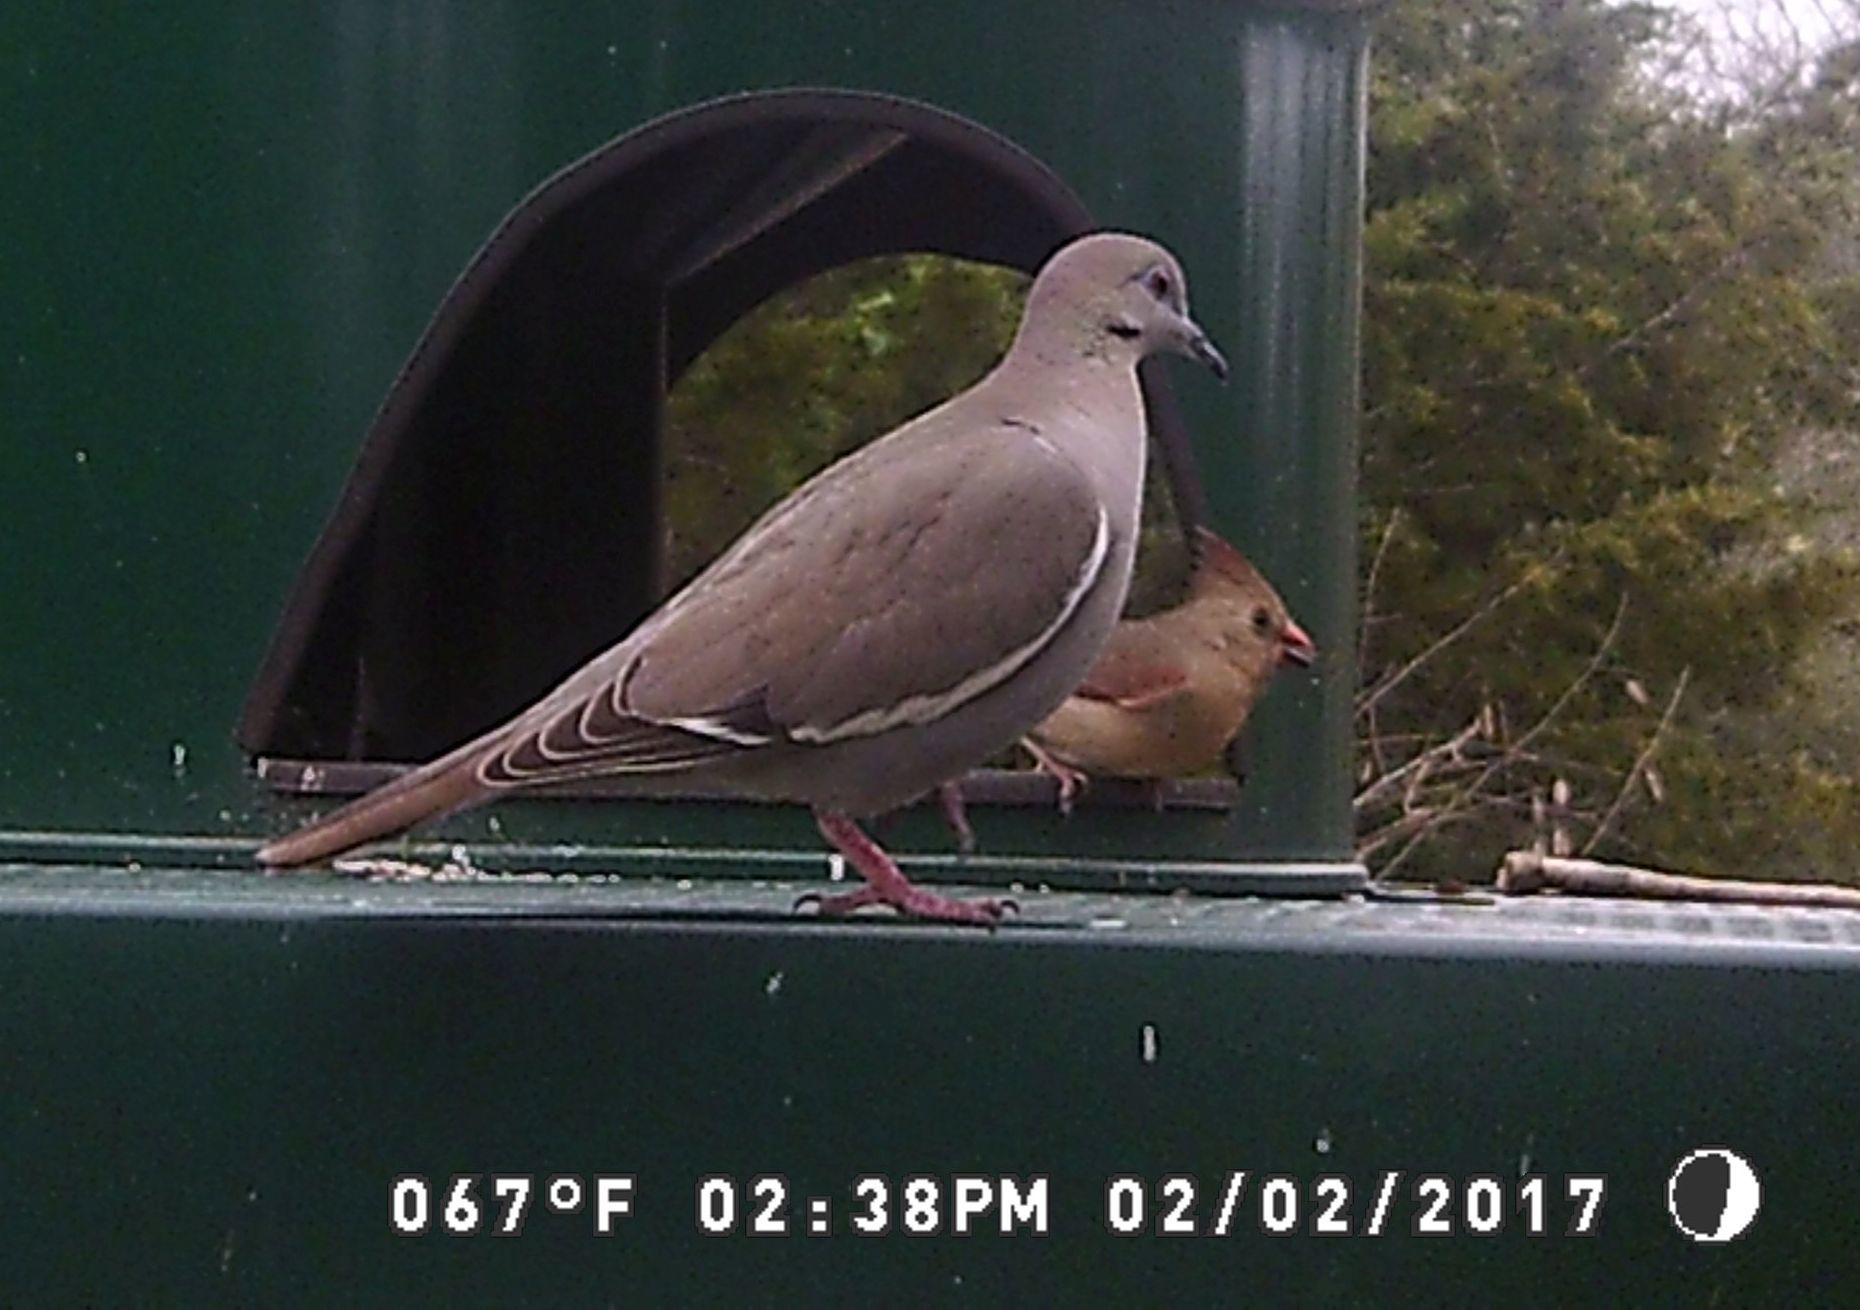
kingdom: Animalia
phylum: Chordata
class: Aves
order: Columbiformes
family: Columbidae
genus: Zenaida
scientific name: Zenaida asiatica
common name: White-winged dove
